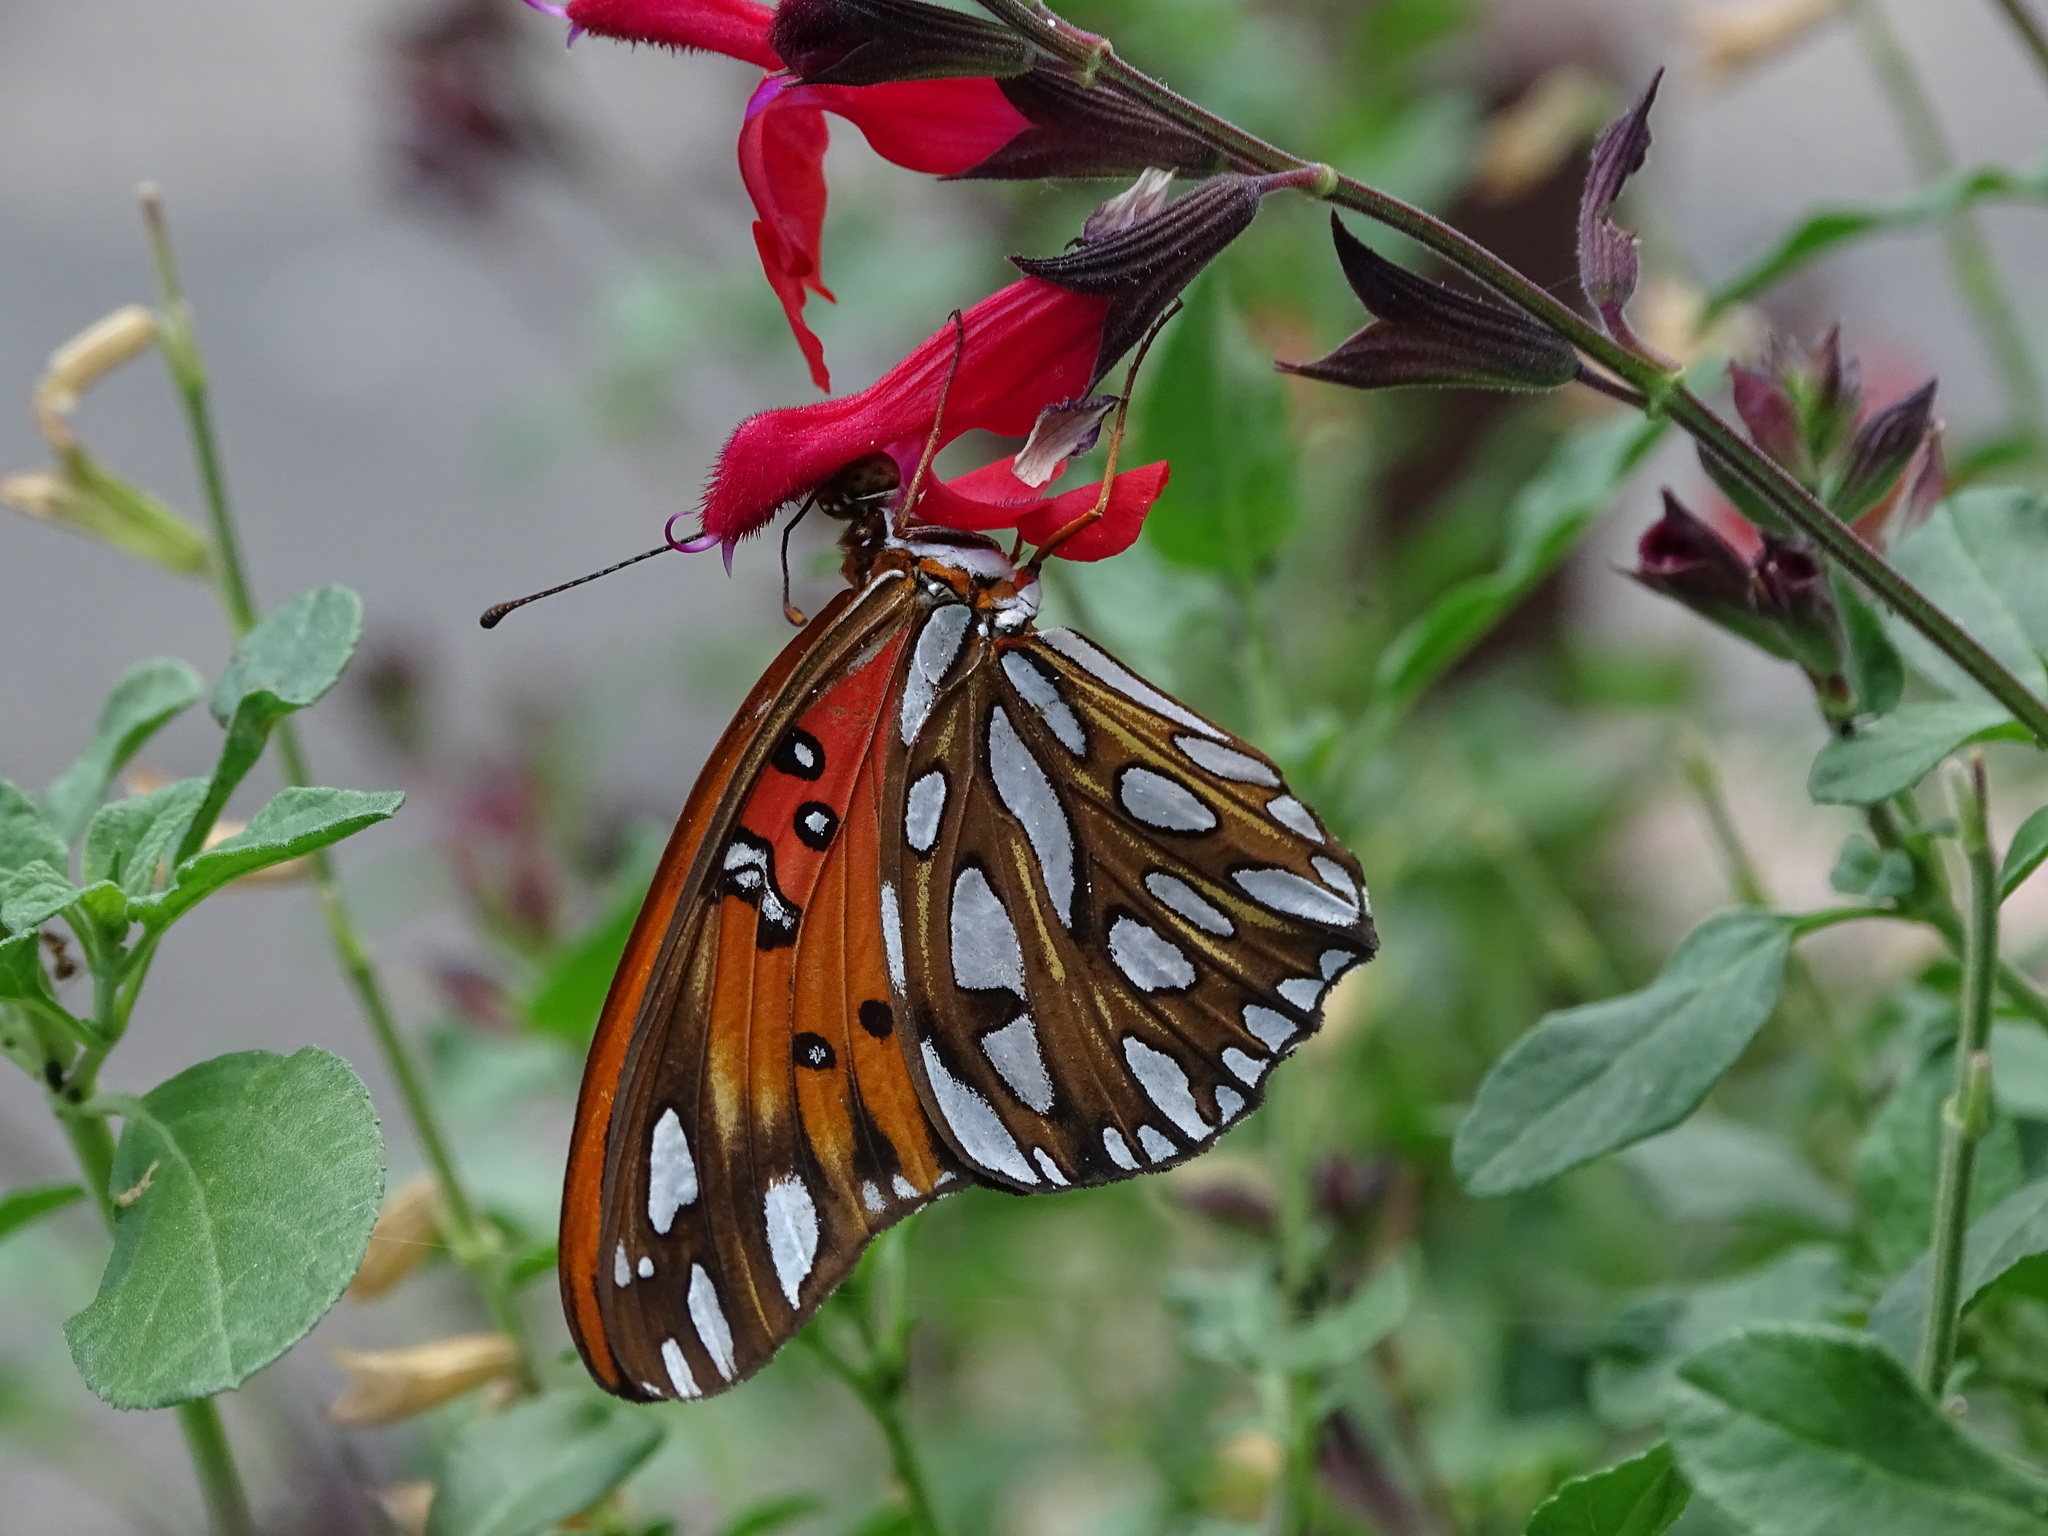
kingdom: Animalia
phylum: Arthropoda
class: Insecta
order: Lepidoptera
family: Nymphalidae
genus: Dione
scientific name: Dione vanillae
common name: Gulf fritillary
